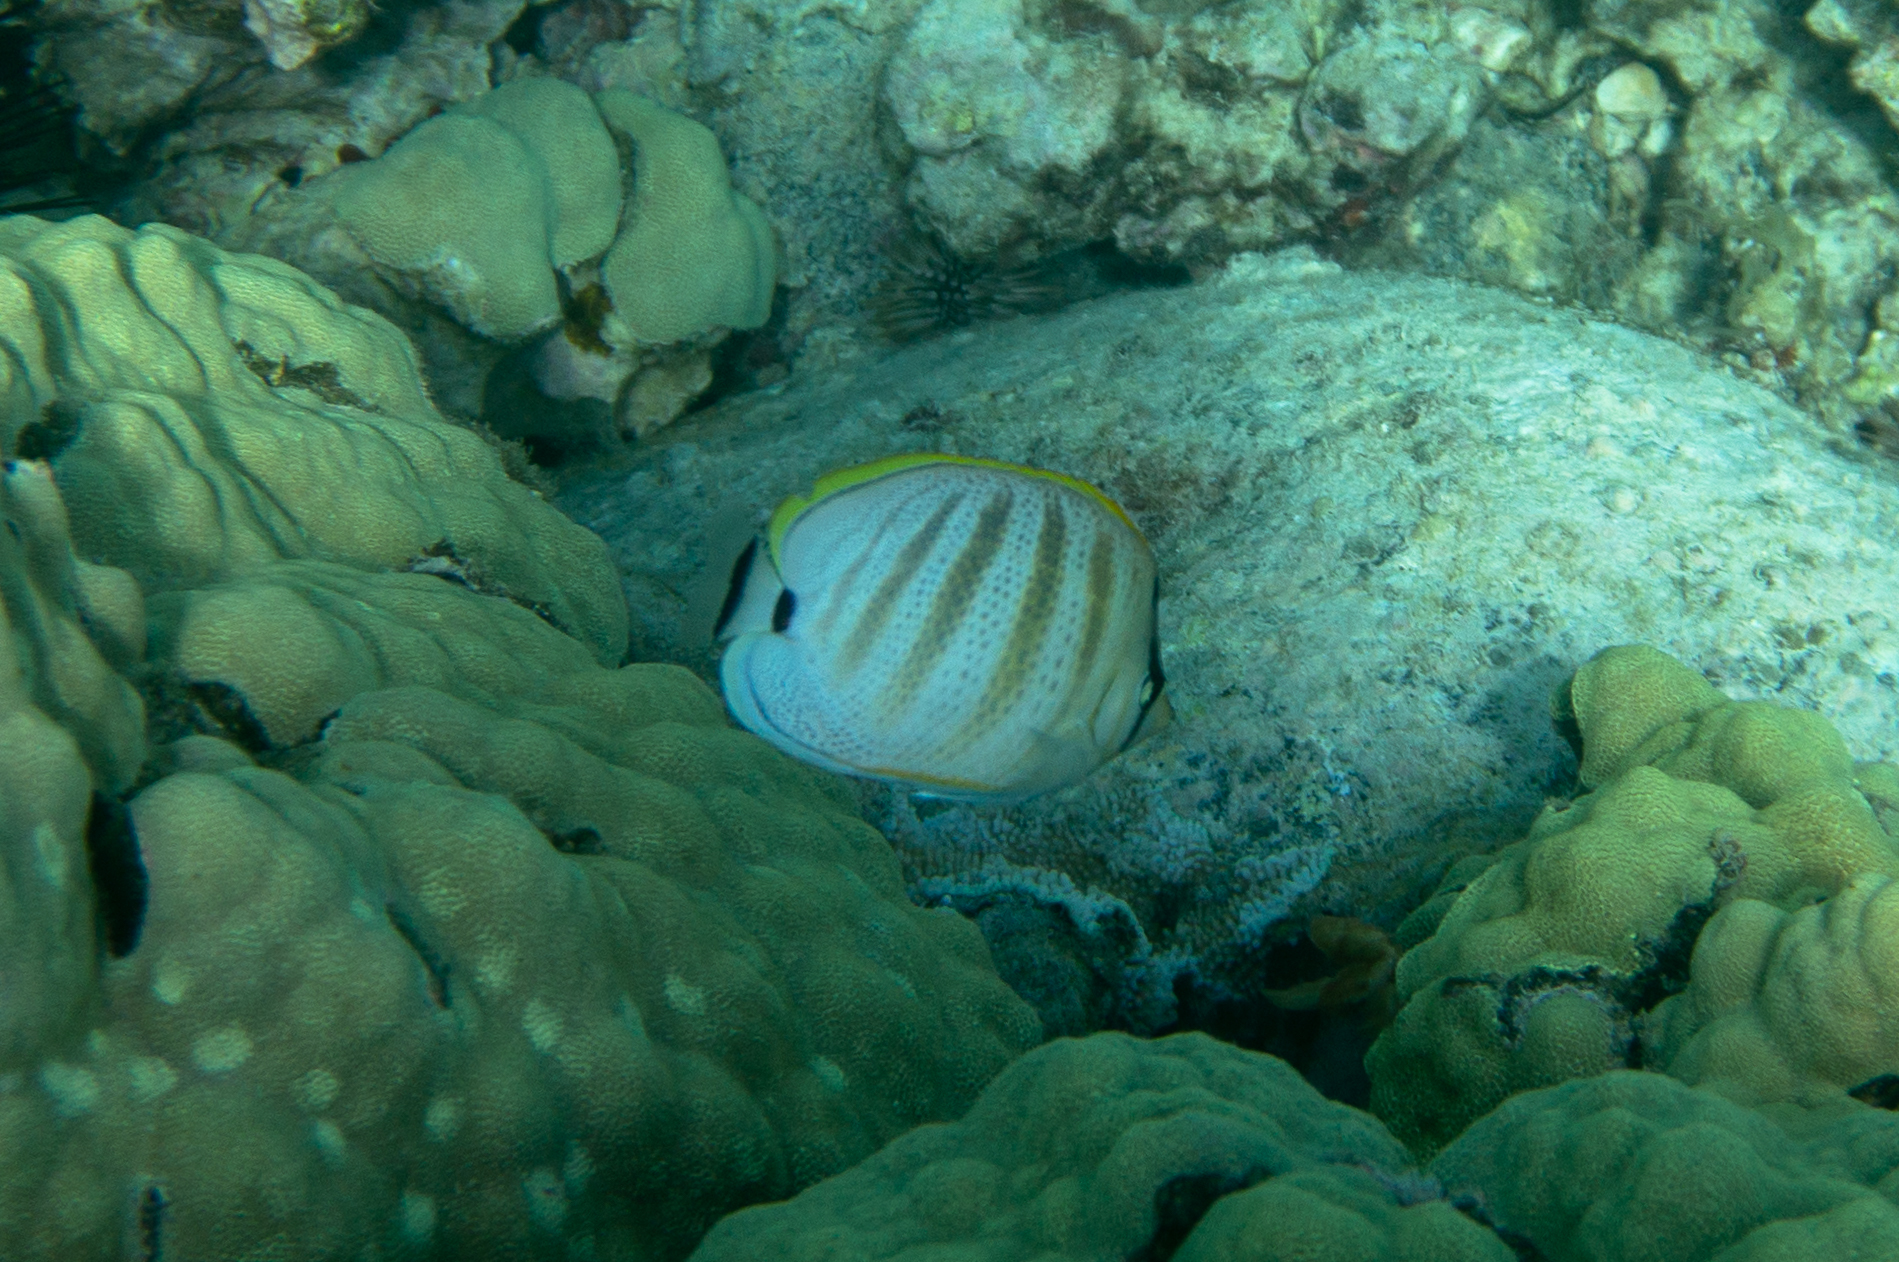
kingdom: Animalia
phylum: Chordata
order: Perciformes
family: Chaetodontidae
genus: Chaetodon
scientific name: Chaetodon multicinctus
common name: Multiband butterflyfish
